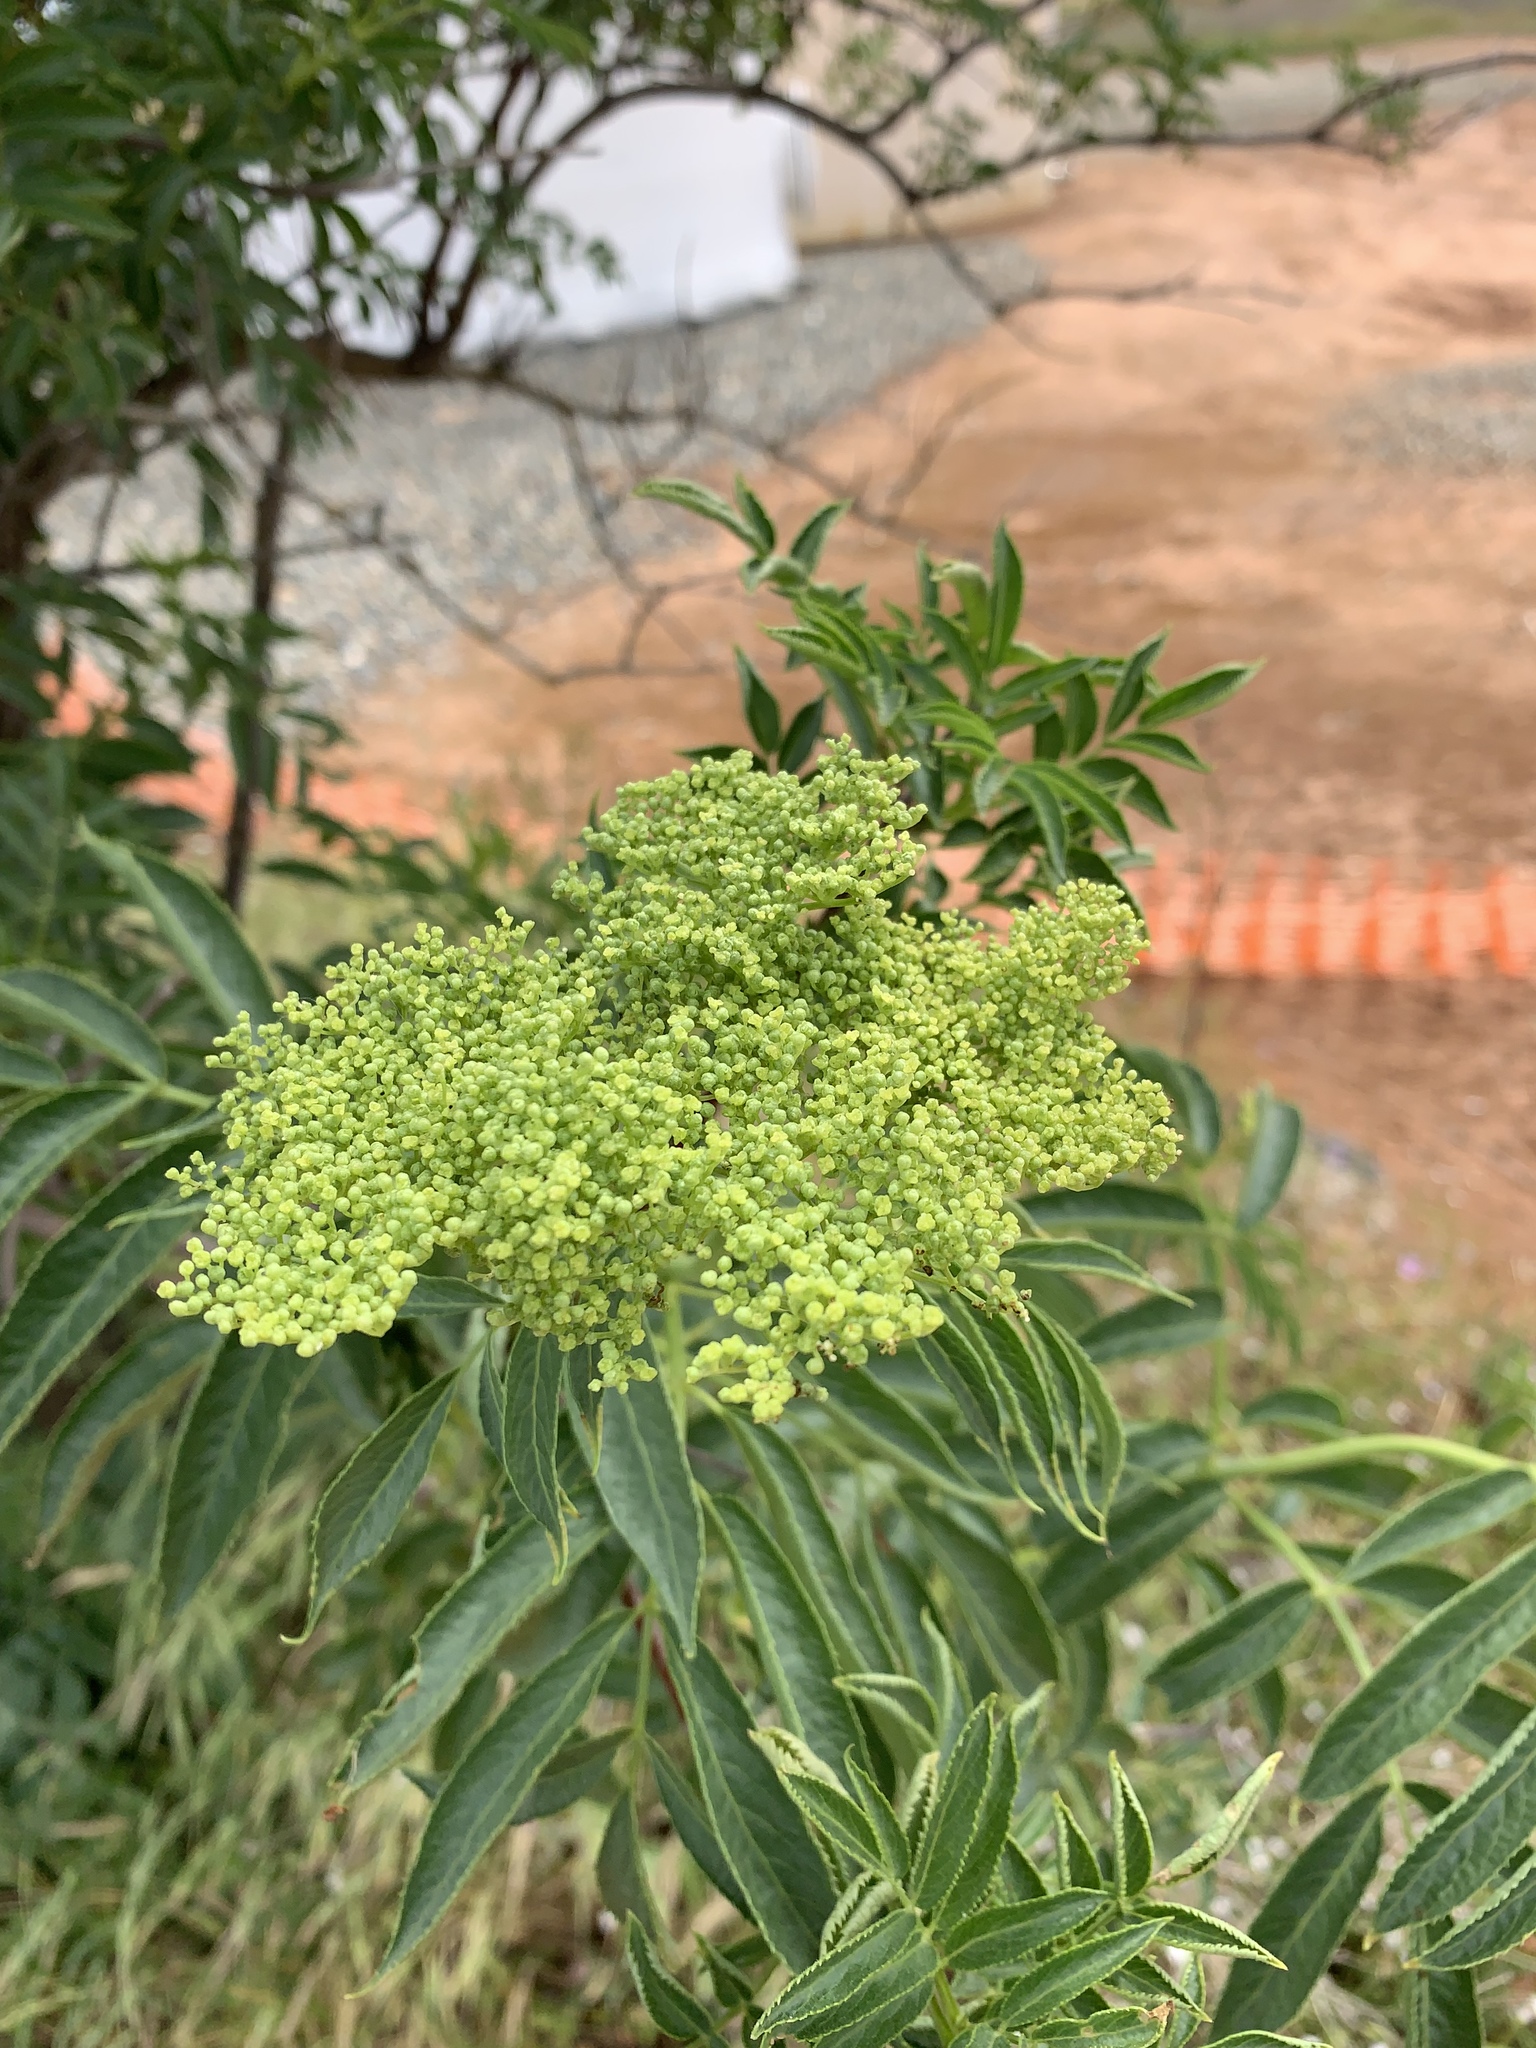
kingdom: Plantae
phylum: Tracheophyta
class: Magnoliopsida
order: Dipsacales
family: Viburnaceae
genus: Sambucus
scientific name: Sambucus cerulea
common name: Blue elder
